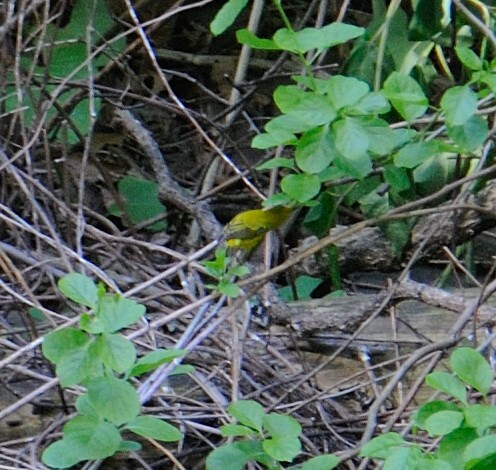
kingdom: Animalia
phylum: Chordata
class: Aves
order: Passeriformes
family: Parulidae
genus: Setophaga
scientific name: Setophaga petechia
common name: Yellow warbler
